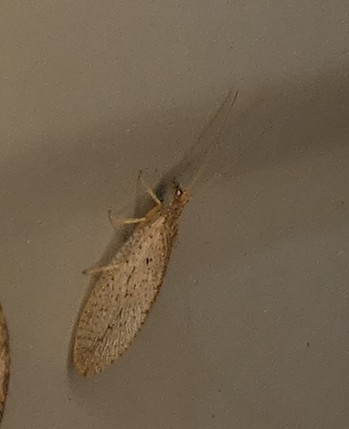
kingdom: Animalia
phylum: Arthropoda
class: Insecta
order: Neuroptera
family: Hemerobiidae
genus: Micromus
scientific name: Micromus subanticus
